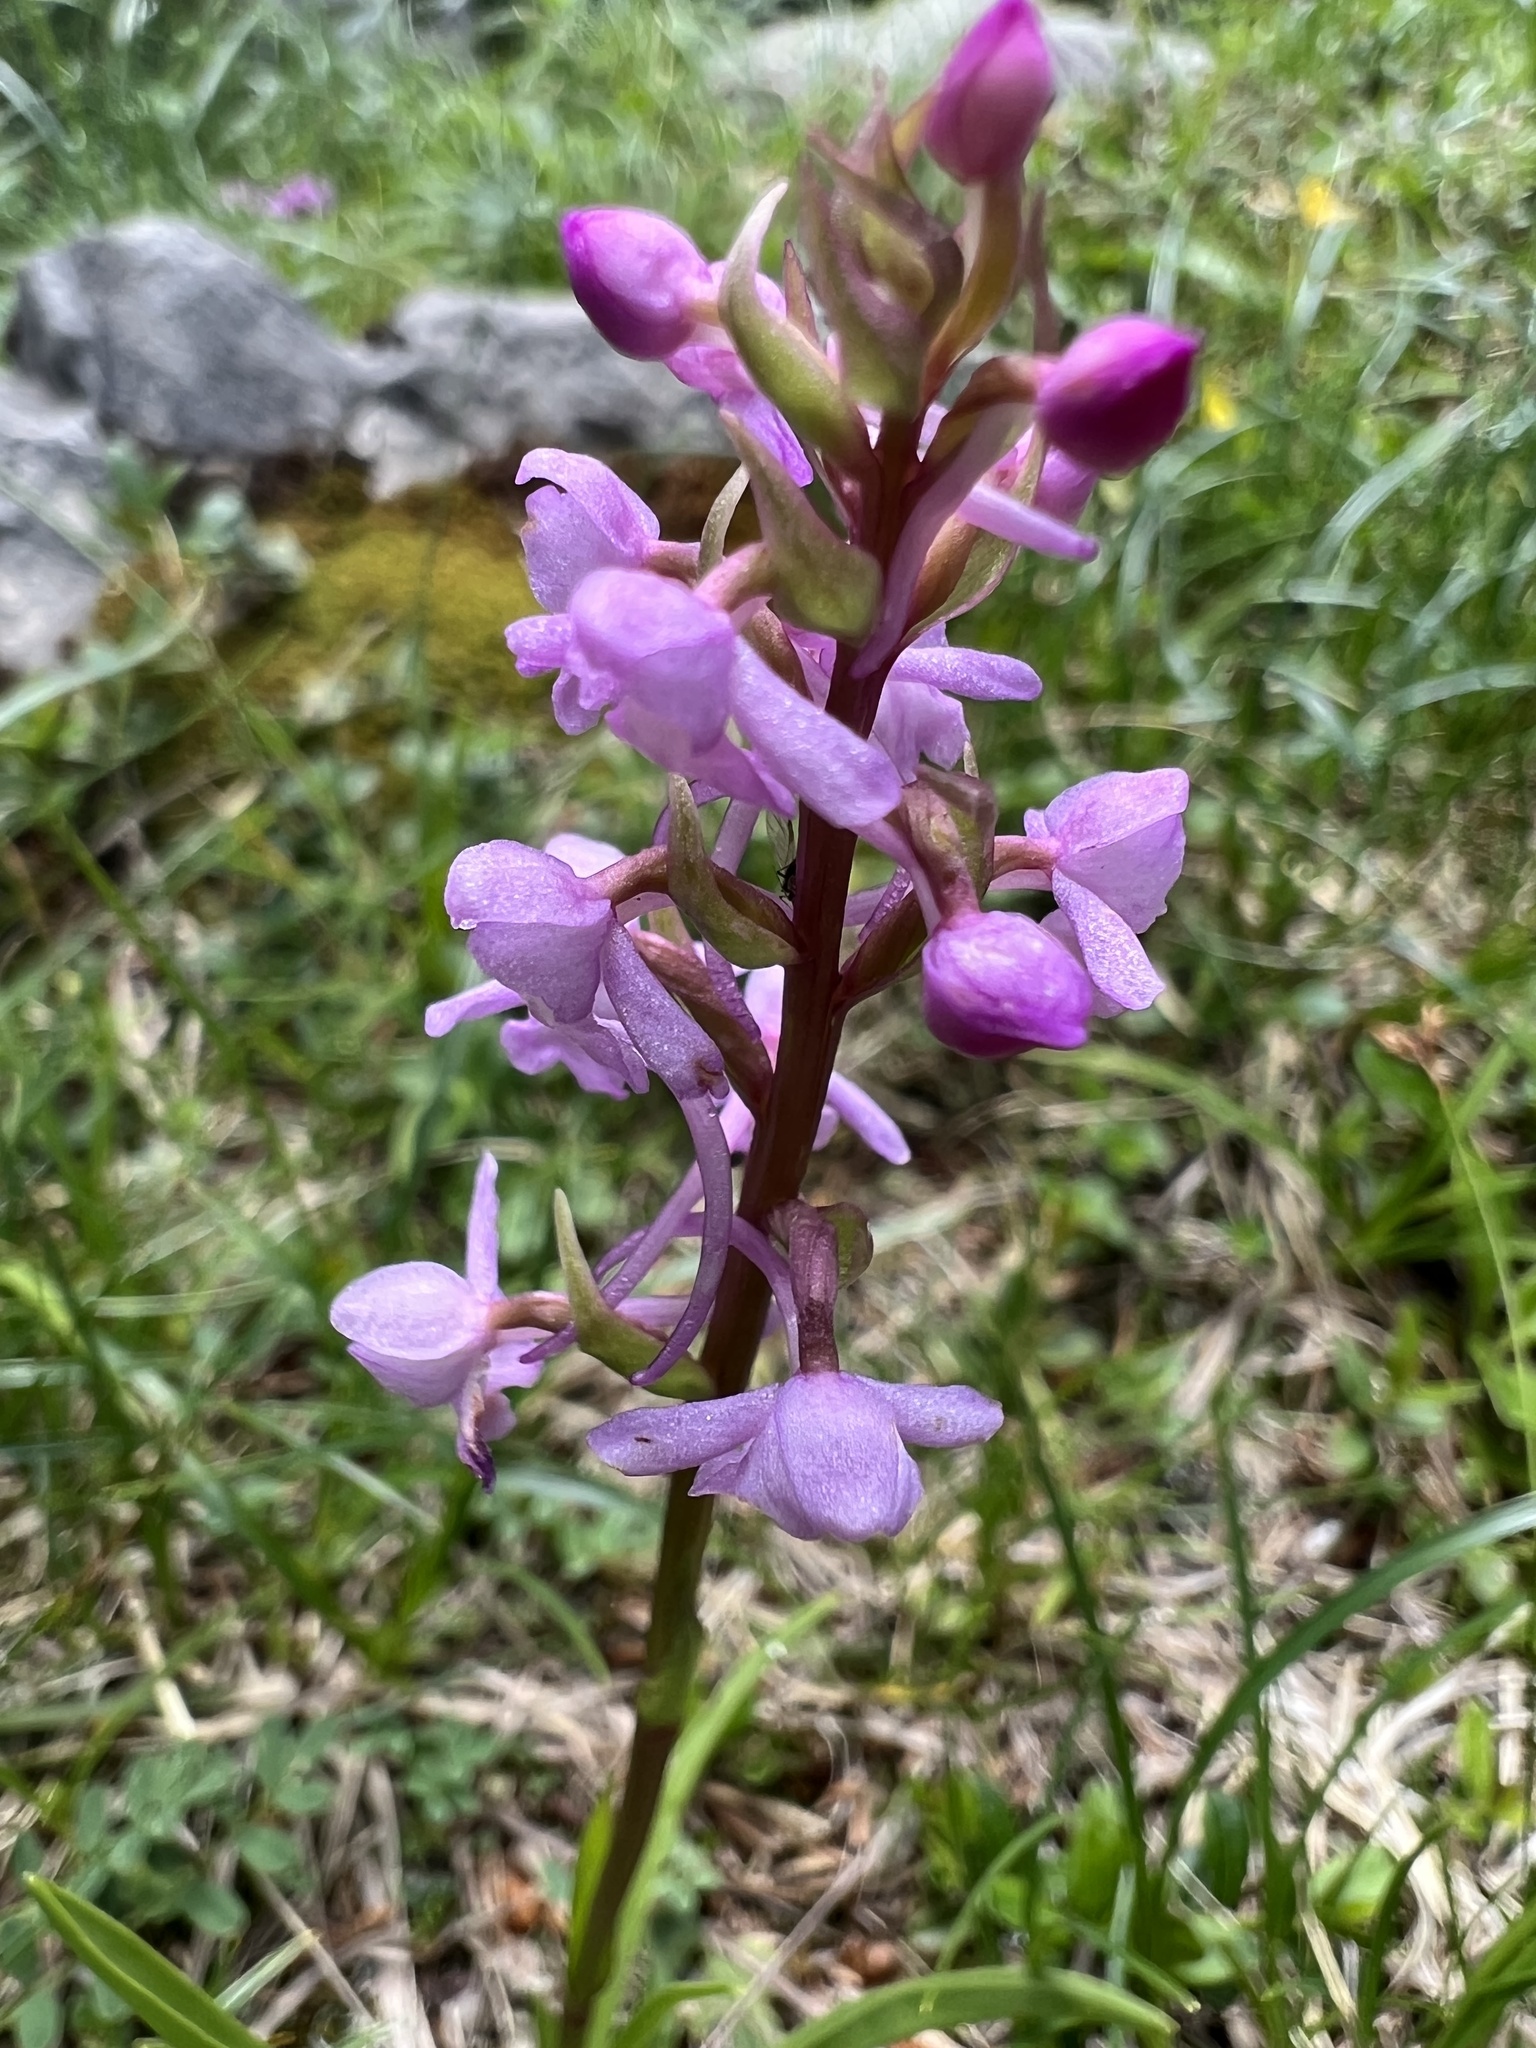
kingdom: Plantae
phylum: Tracheophyta
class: Liliopsida
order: Asparagales
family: Orchidaceae
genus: Gymnadenia
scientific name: Gymnadenia conopsea
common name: Fragrant orchid
